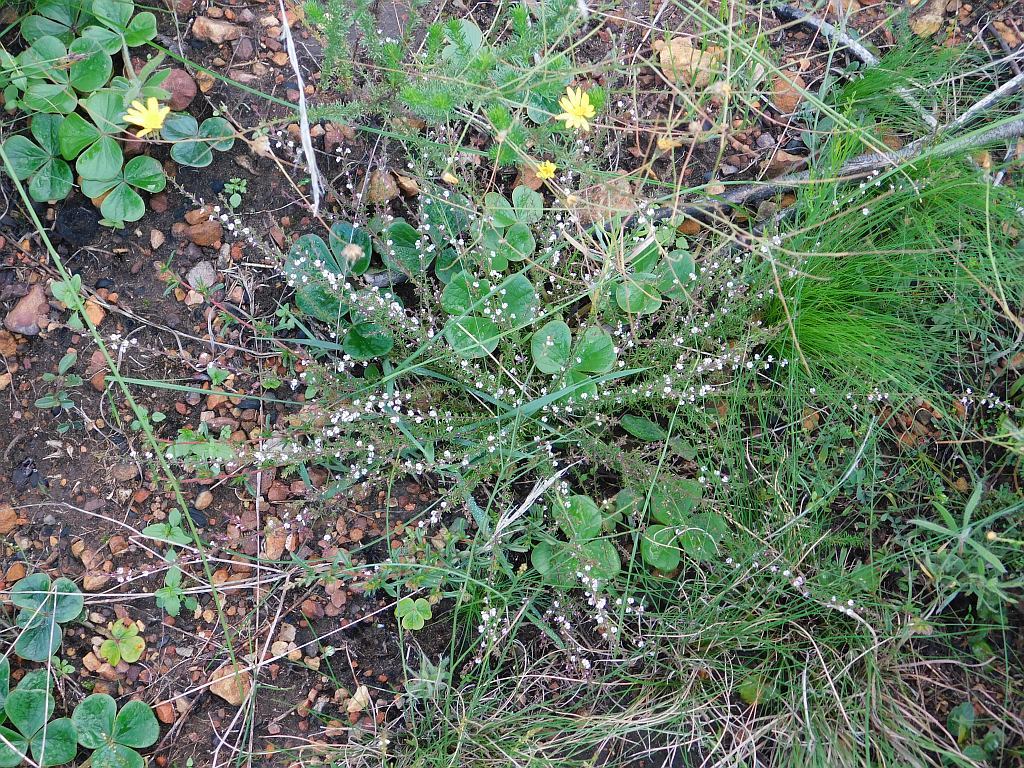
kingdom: Plantae
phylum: Tracheophyta
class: Magnoliopsida
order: Fabales
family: Polygalaceae
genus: Muraltia
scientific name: Muraltia ericoides
